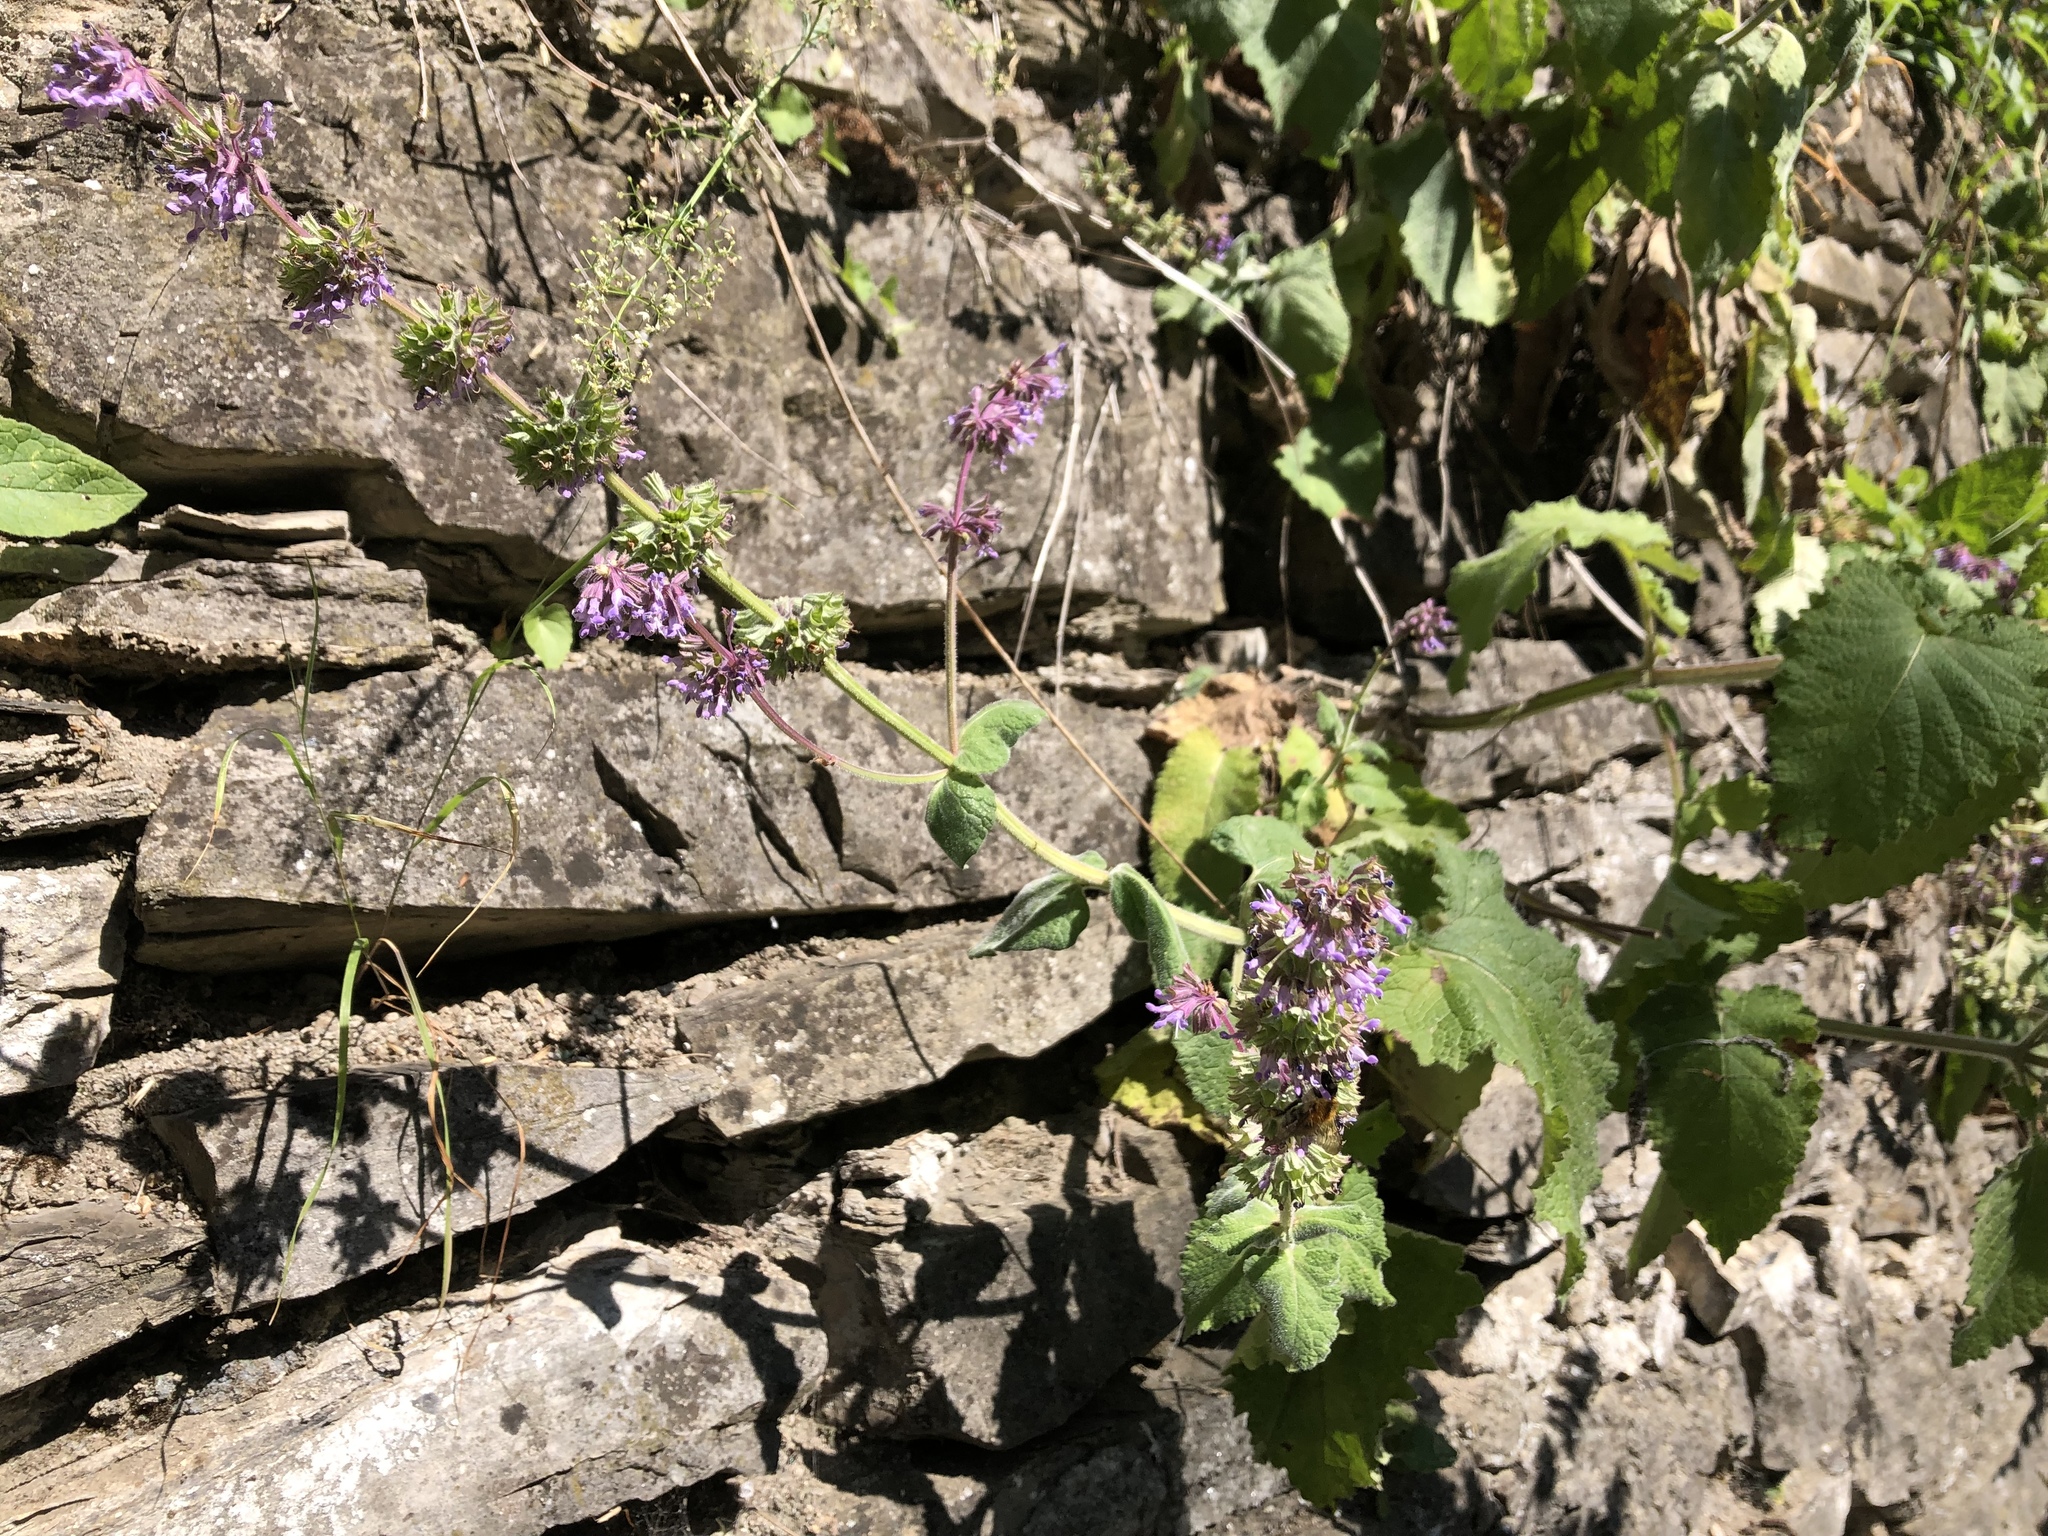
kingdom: Plantae
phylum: Tracheophyta
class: Magnoliopsida
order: Lamiales
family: Lamiaceae
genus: Salvia
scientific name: Salvia verticillata
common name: Whorled clary
